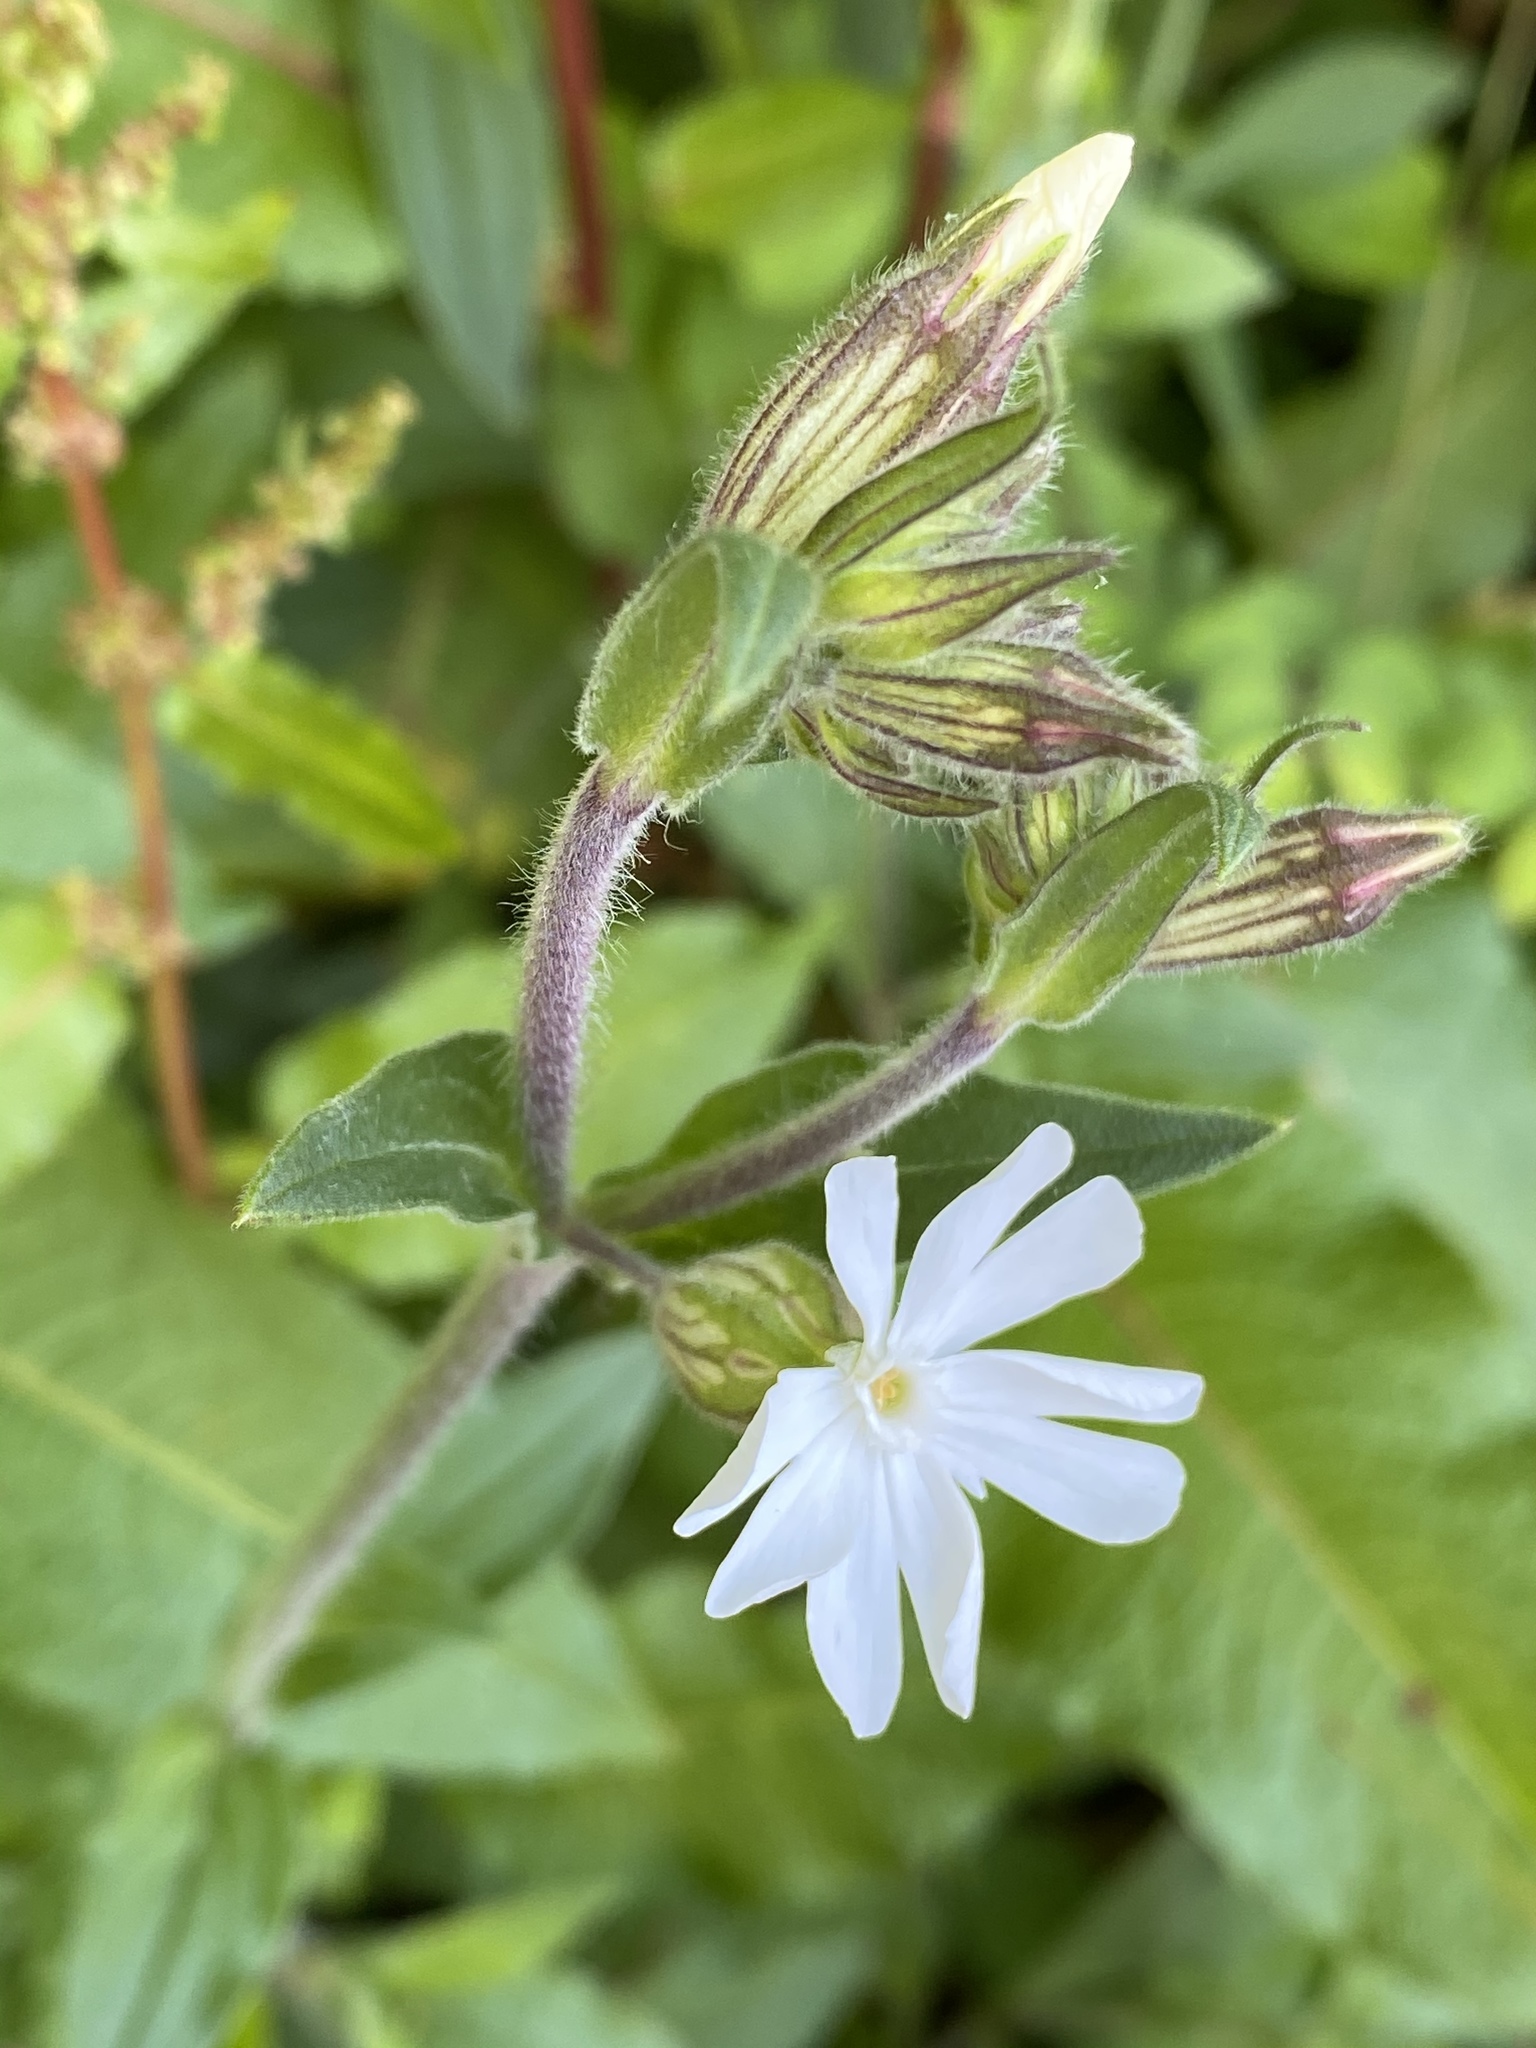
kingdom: Plantae
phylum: Tracheophyta
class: Magnoliopsida
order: Caryophyllales
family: Caryophyllaceae
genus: Silene
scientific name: Silene latifolia
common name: White campion
